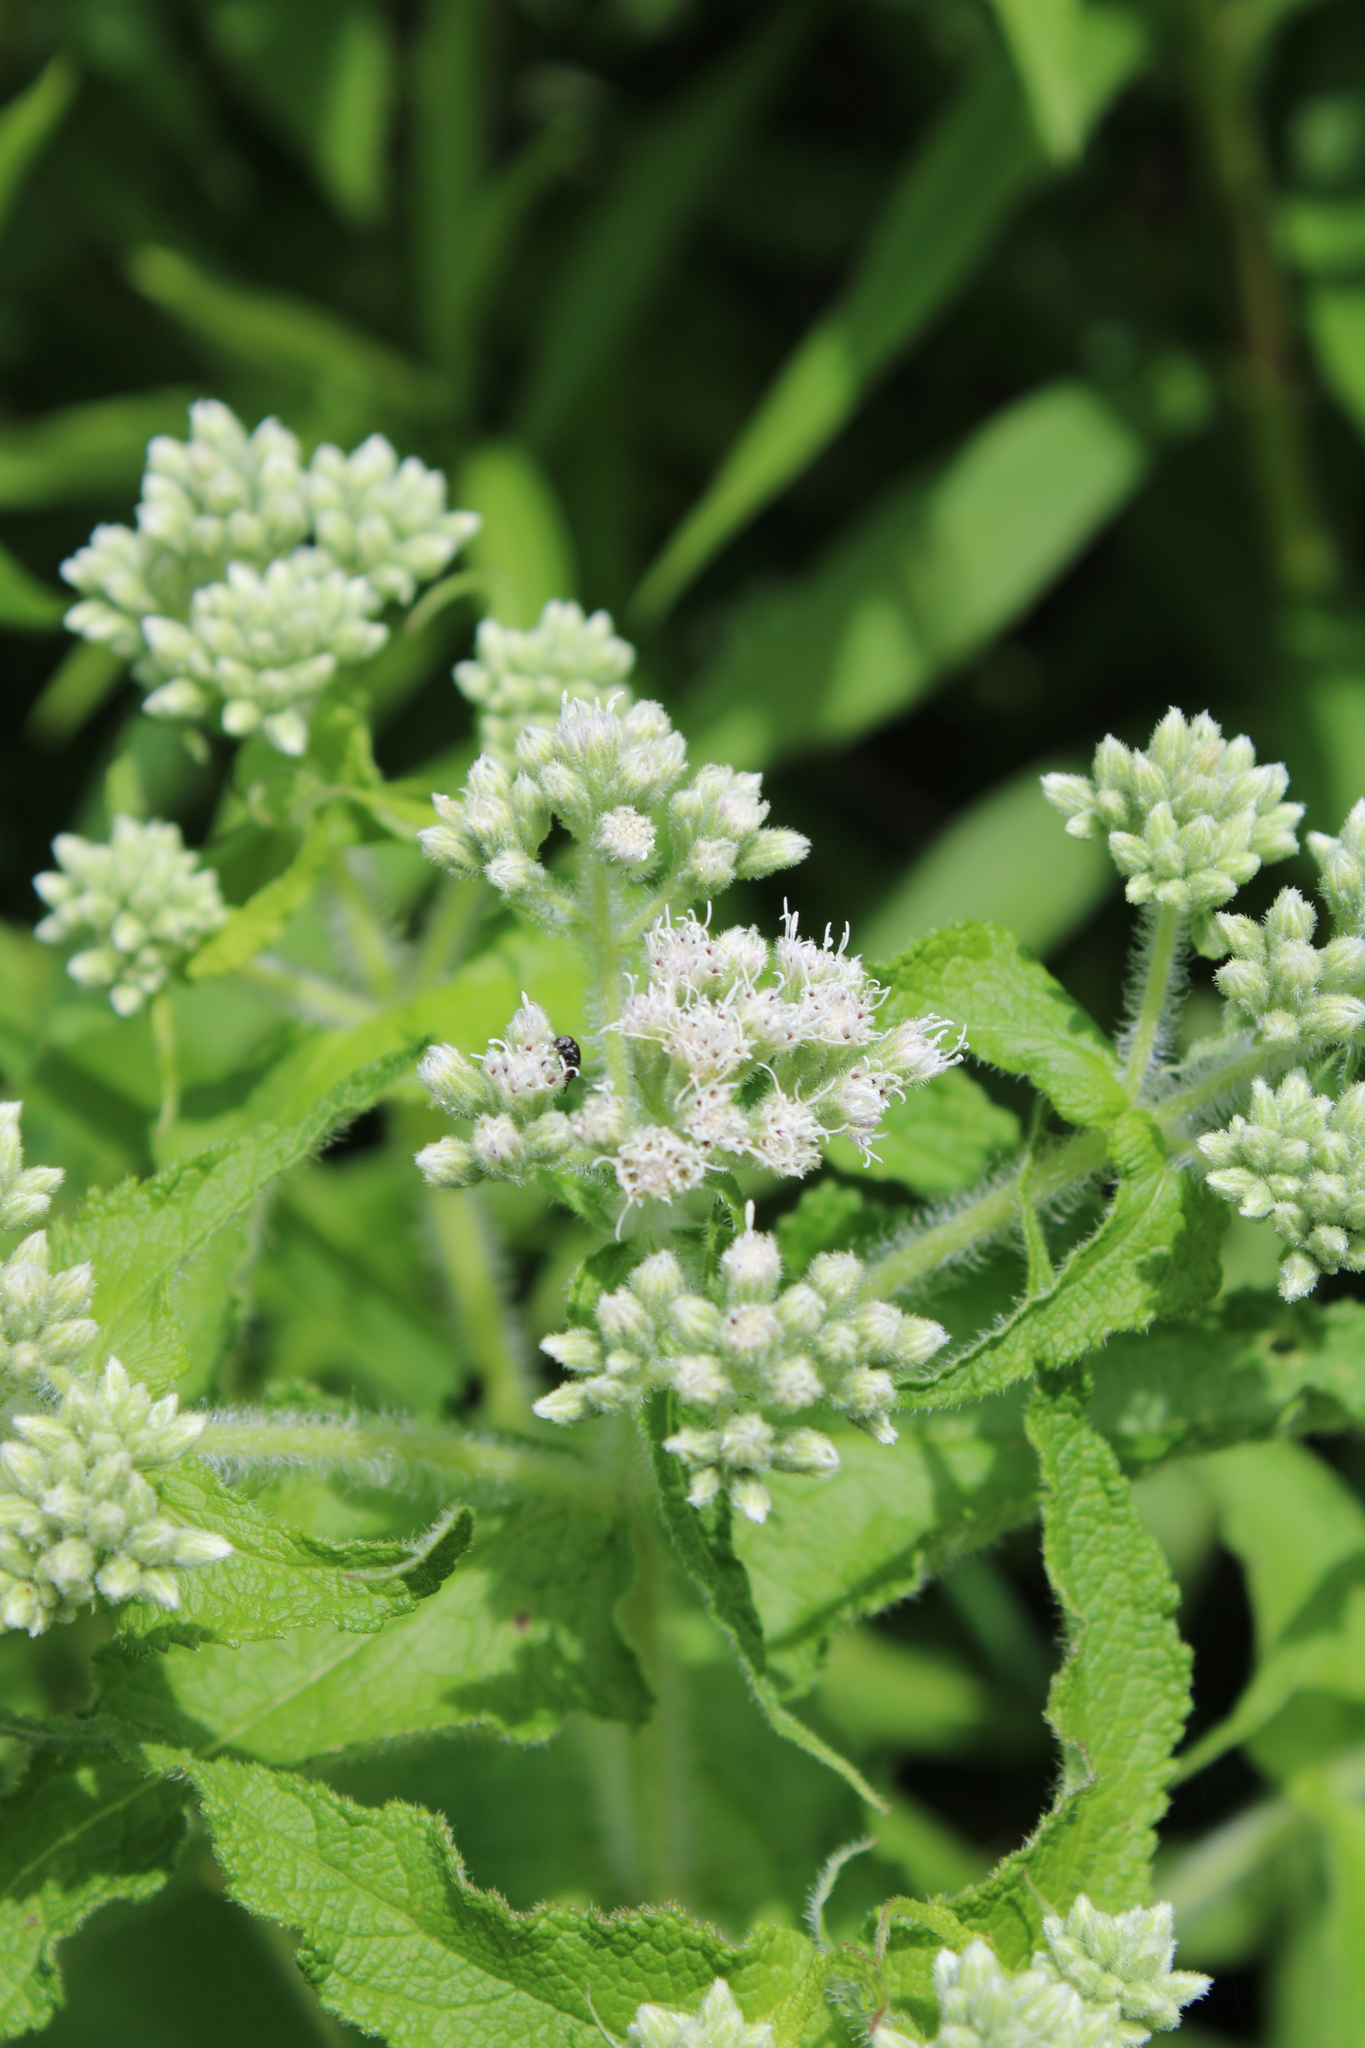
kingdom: Plantae
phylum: Tracheophyta
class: Magnoliopsida
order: Asterales
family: Asteraceae
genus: Eupatorium
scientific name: Eupatorium perfoliatum
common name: Boneset
